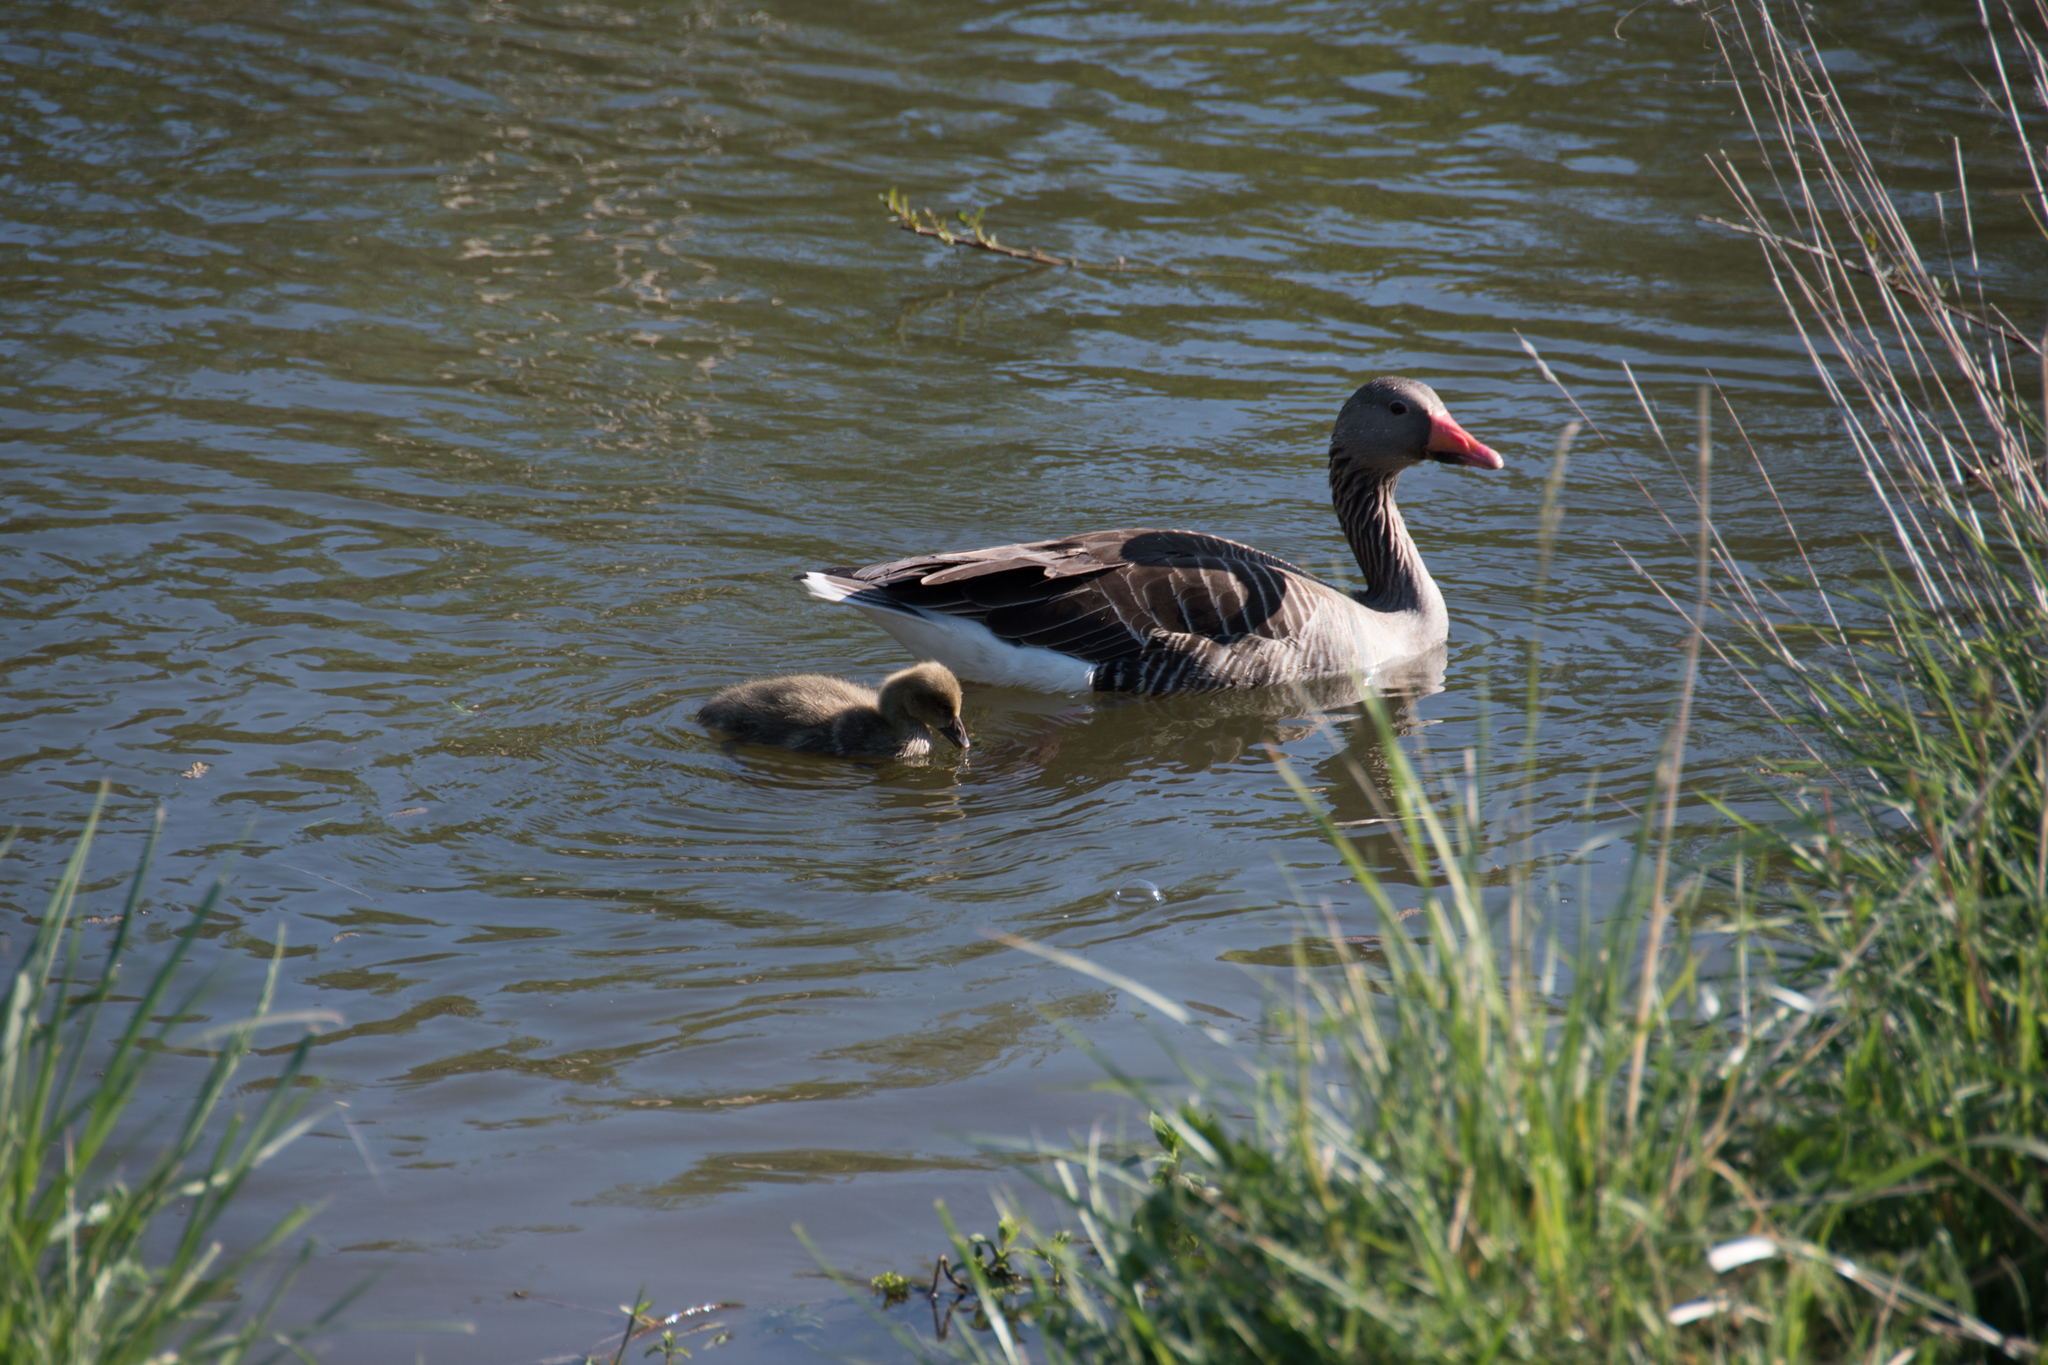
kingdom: Animalia
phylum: Chordata
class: Aves
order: Anseriformes
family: Anatidae
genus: Anser
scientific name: Anser anser
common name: Greylag goose
